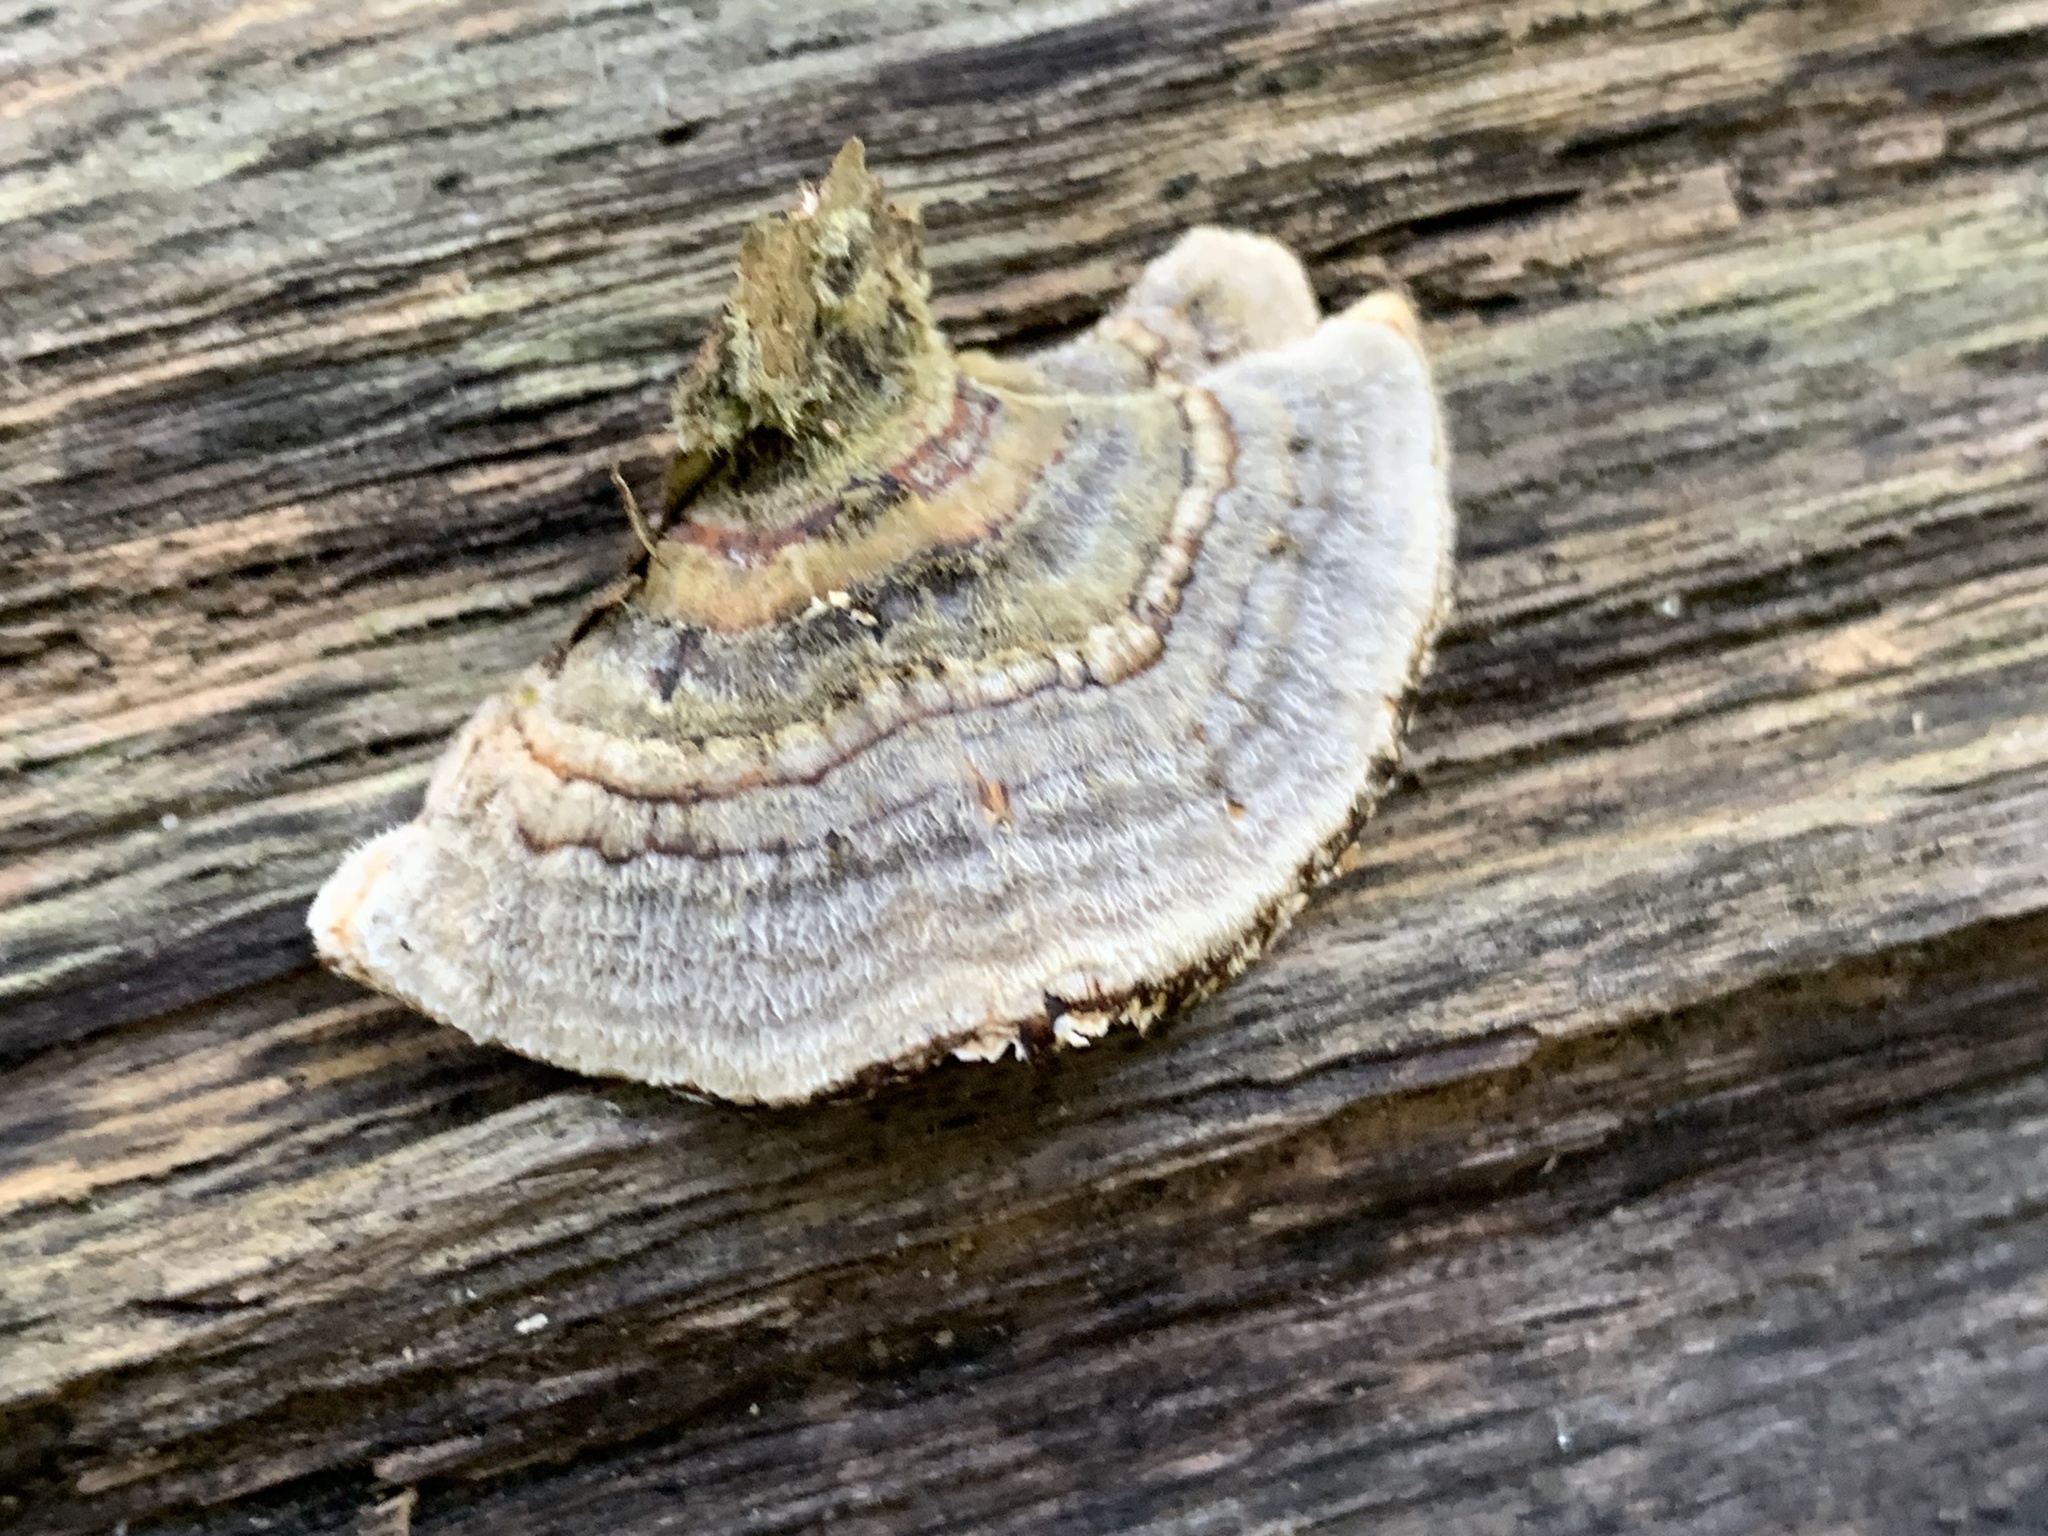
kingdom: Fungi
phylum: Basidiomycota
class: Agaricomycetes
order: Polyporales
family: Polyporaceae
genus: Trametes
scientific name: Trametes versicolor
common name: Turkeytail
